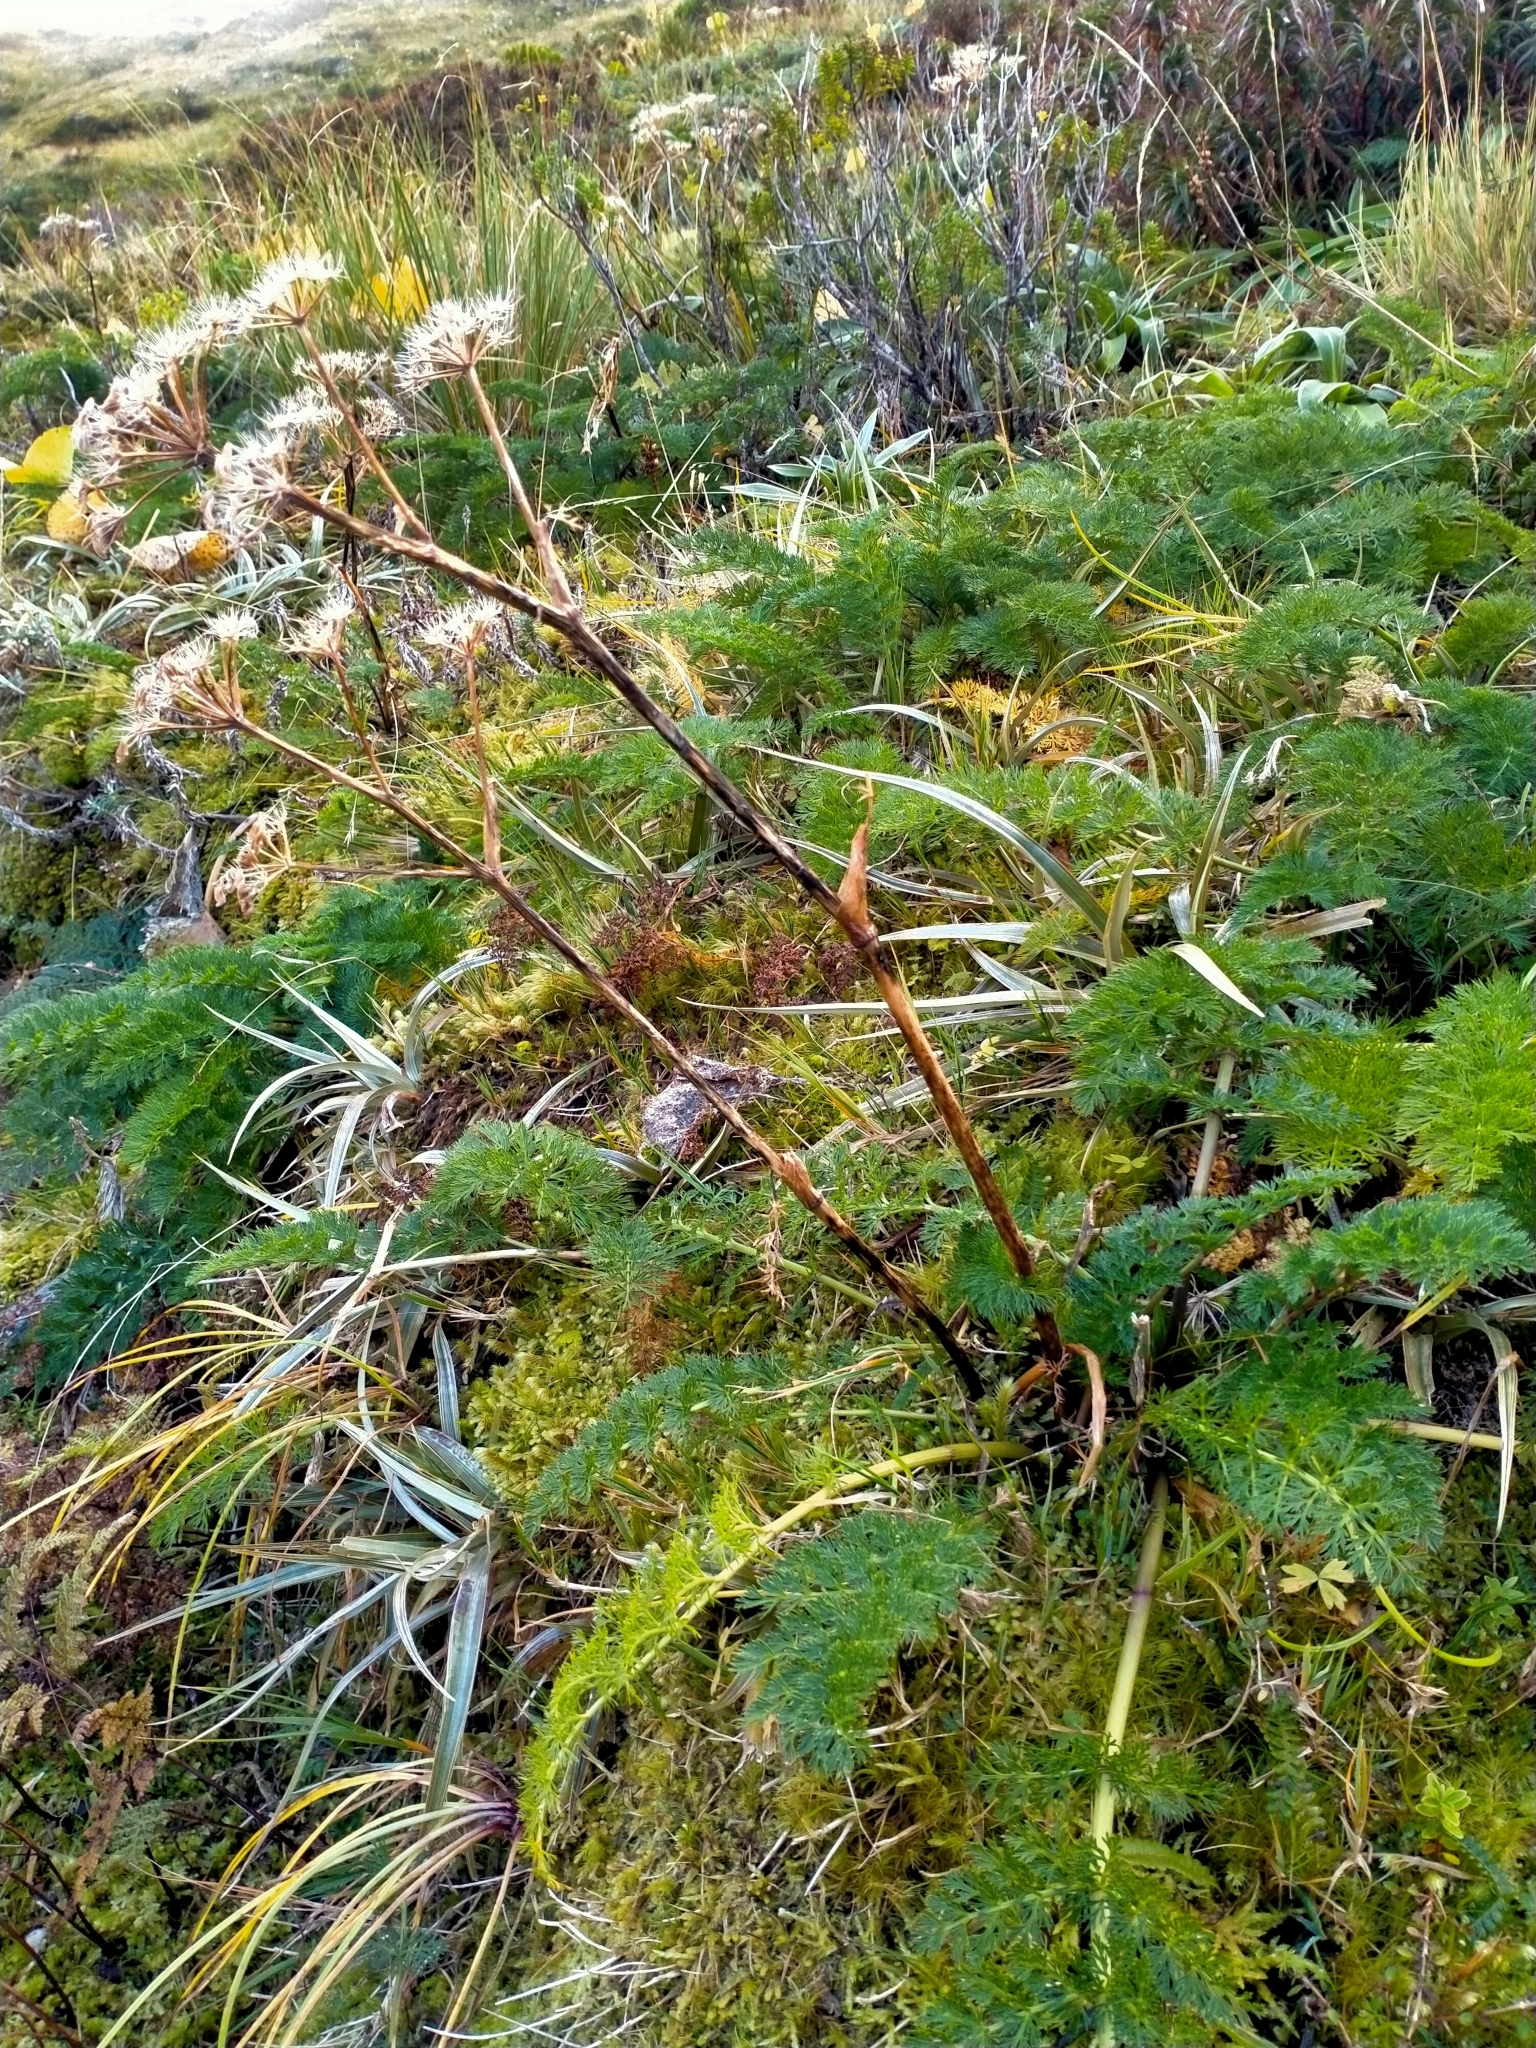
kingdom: Plantae
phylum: Tracheophyta
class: Magnoliopsida
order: Apiales
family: Apiaceae
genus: Anisotome
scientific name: Anisotome haastii
